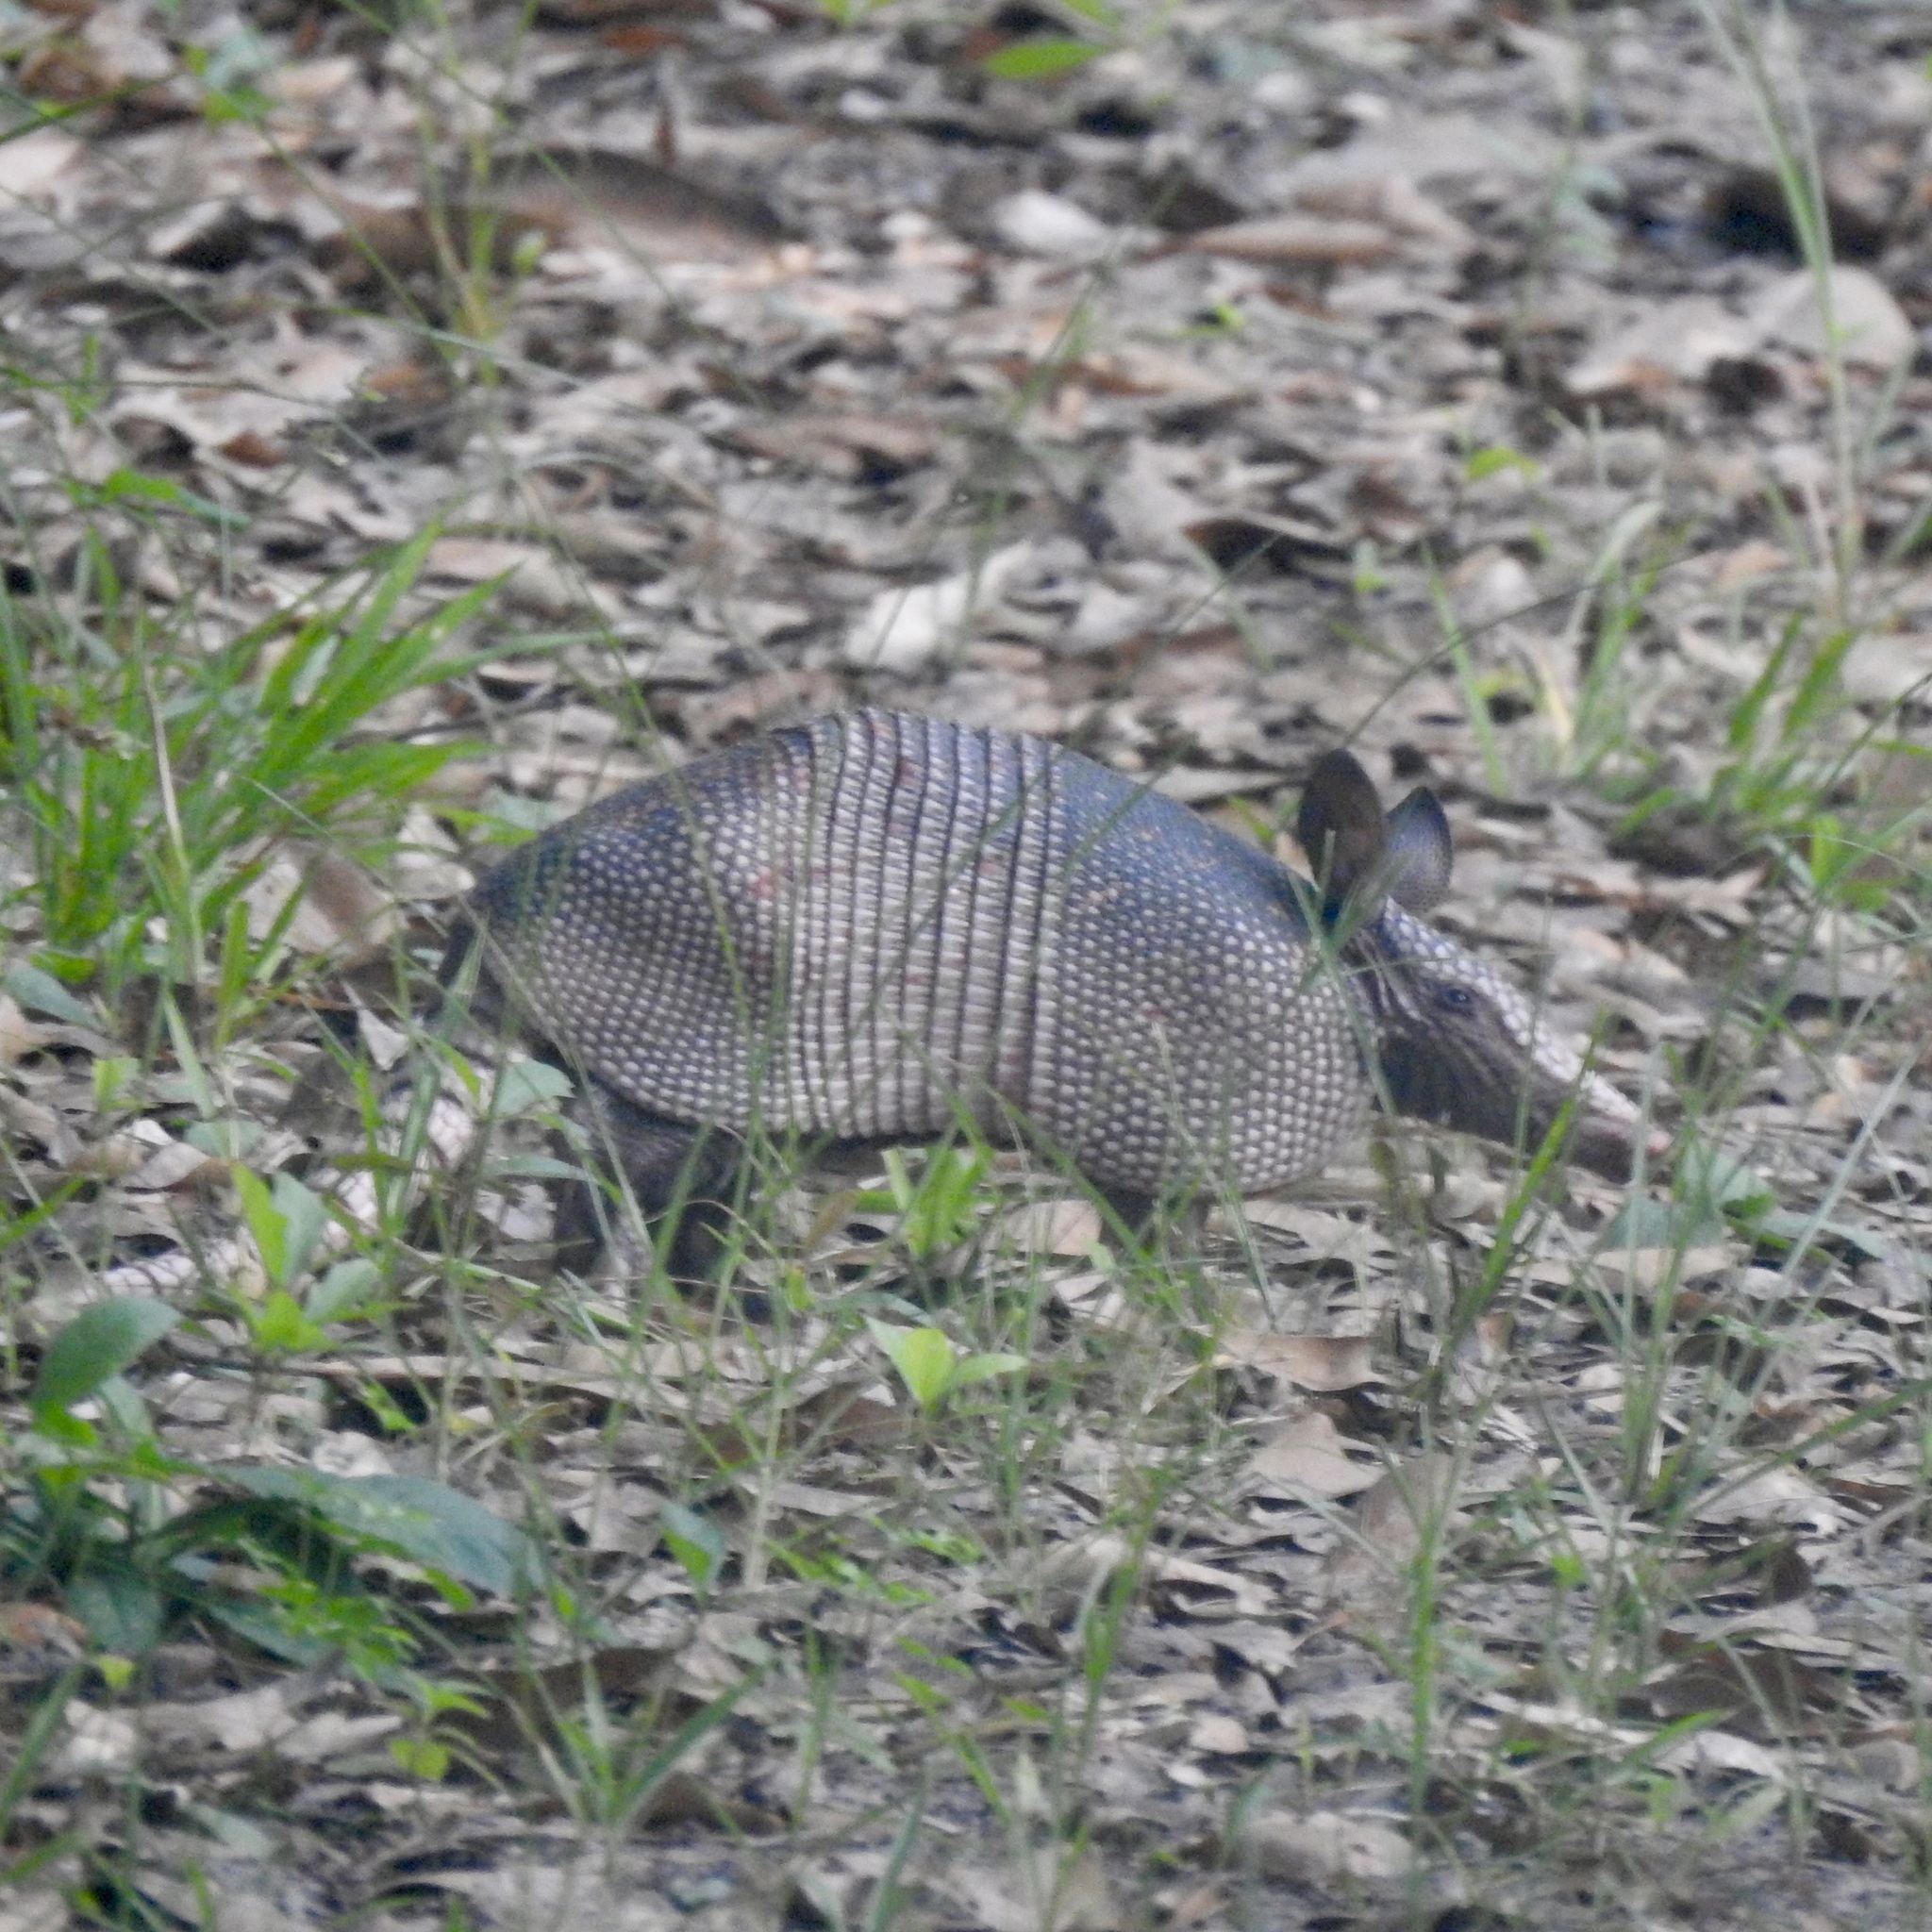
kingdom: Animalia
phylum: Chordata
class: Mammalia
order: Cingulata
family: Dasypodidae
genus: Dasypus
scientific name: Dasypus novemcinctus
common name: Nine-banded armadillo
